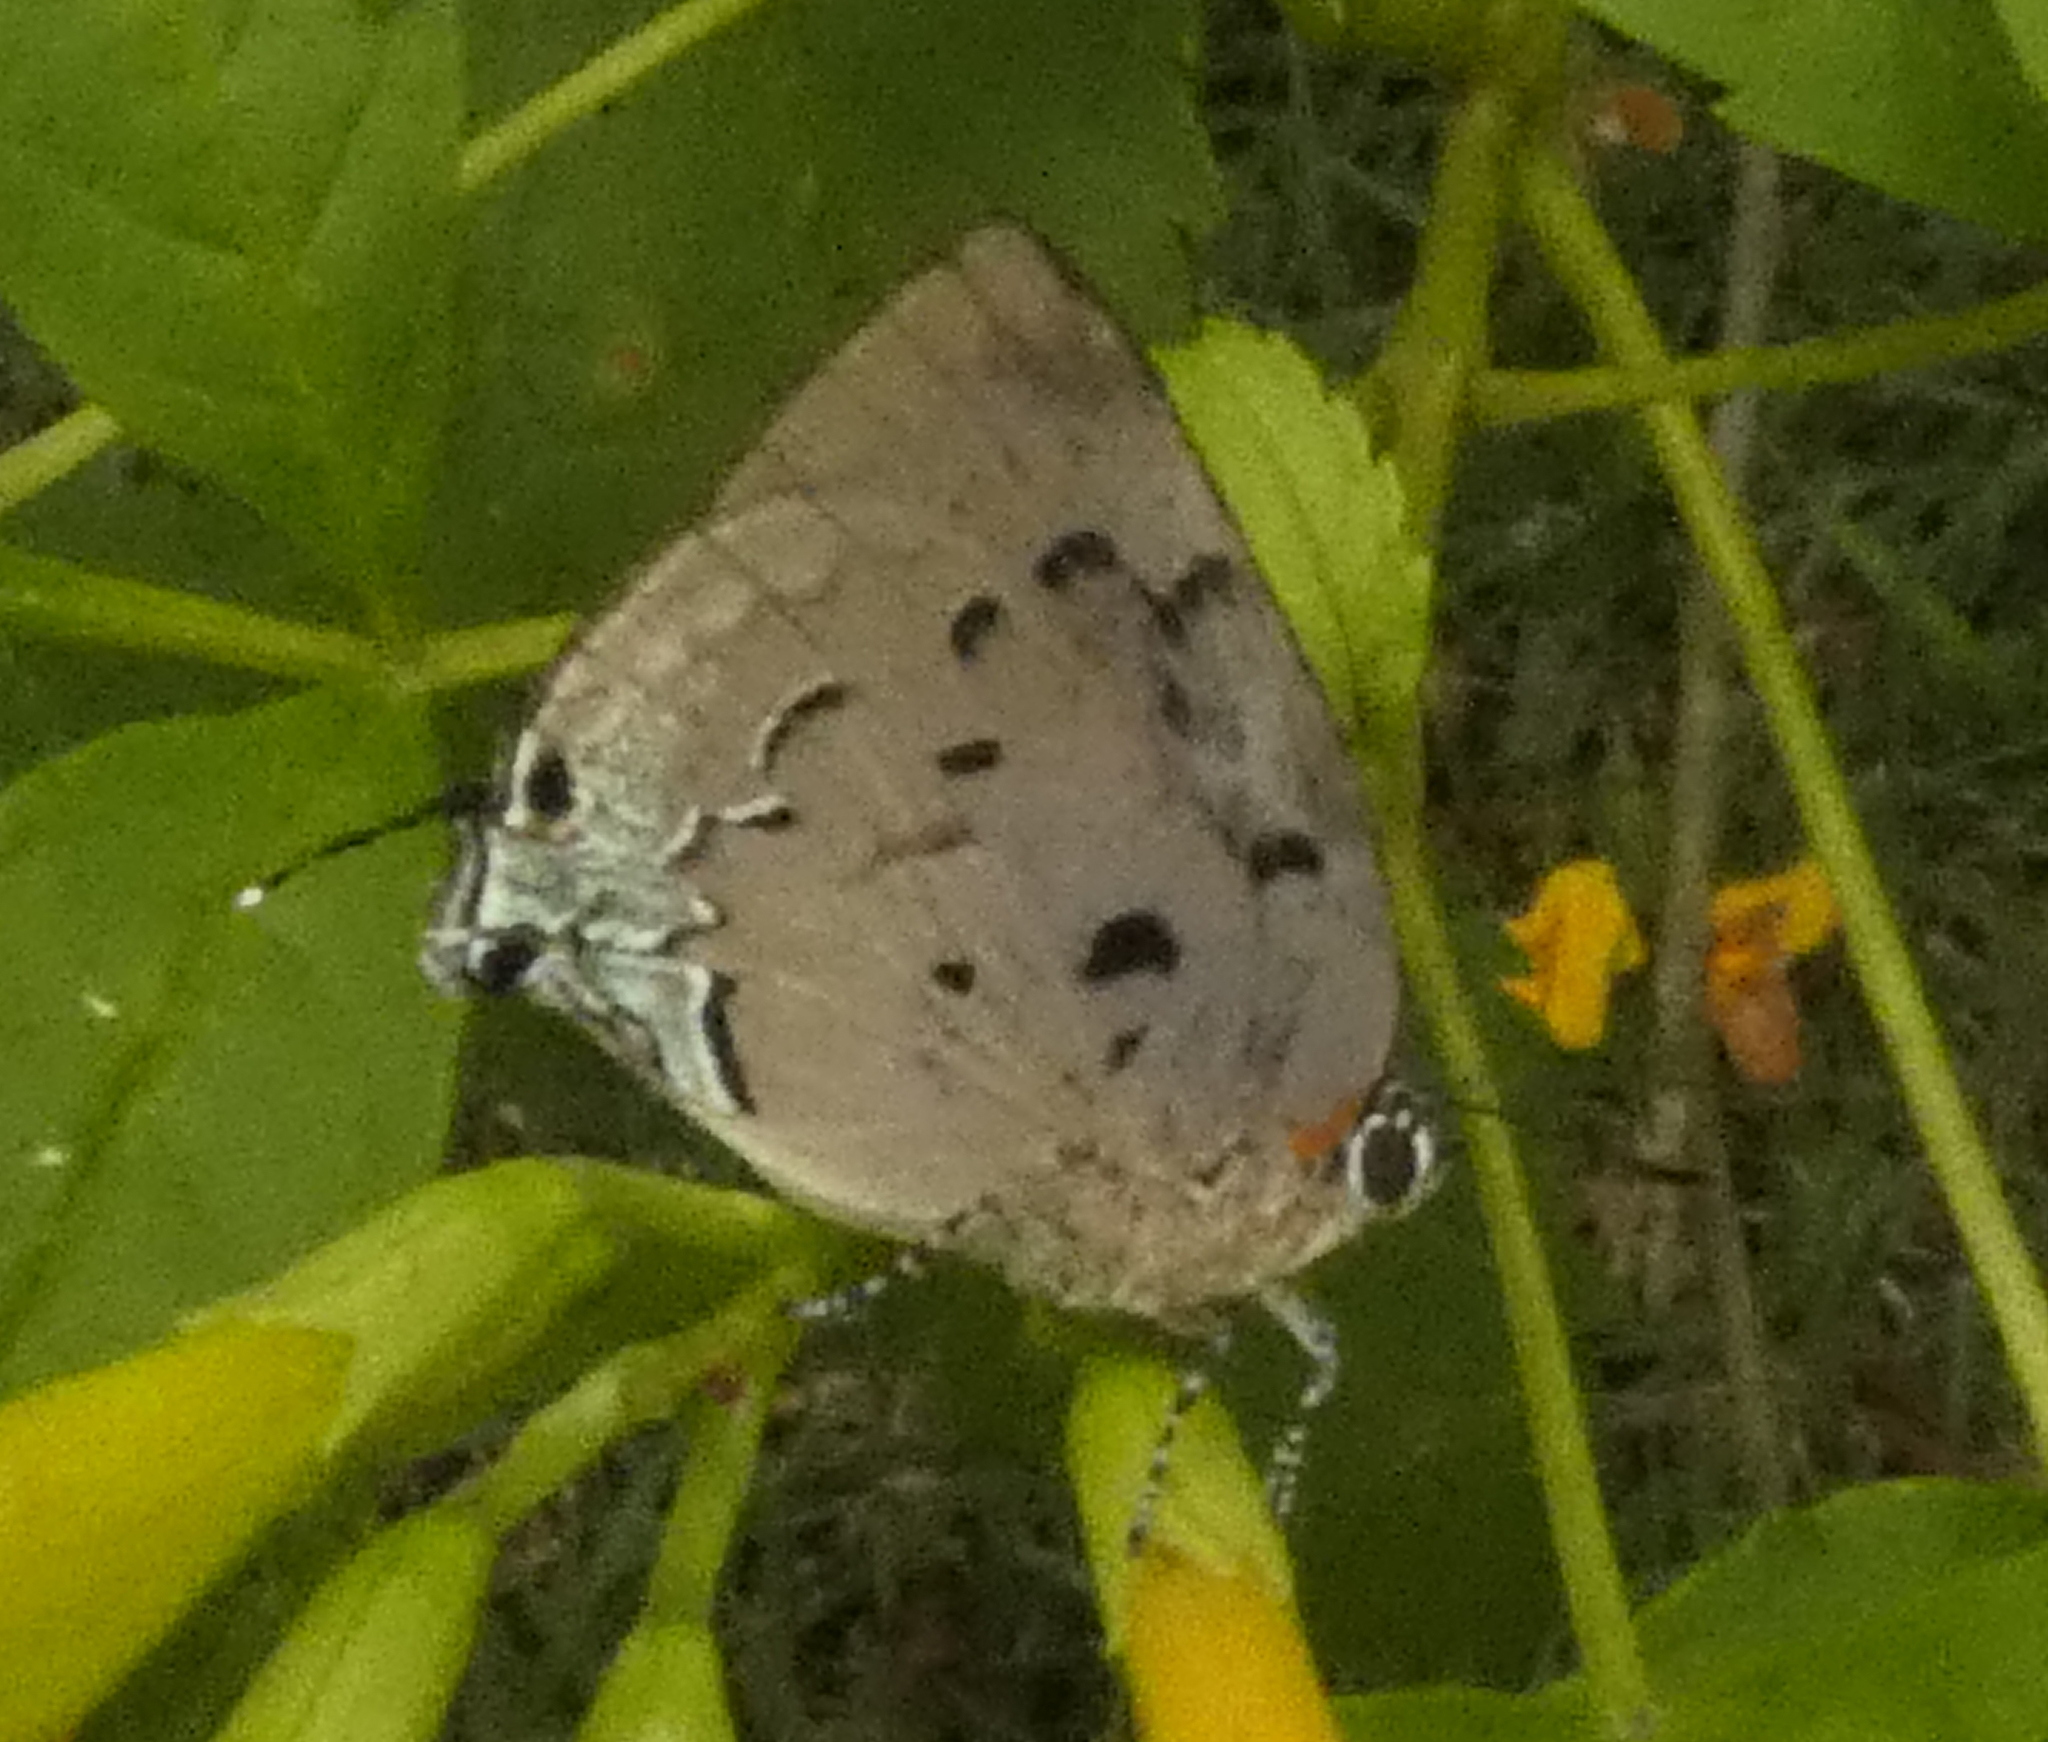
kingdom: Animalia
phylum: Arthropoda
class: Insecta
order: Lepidoptera
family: Lycaenidae
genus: Panthiades
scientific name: Panthiades hebraeus
